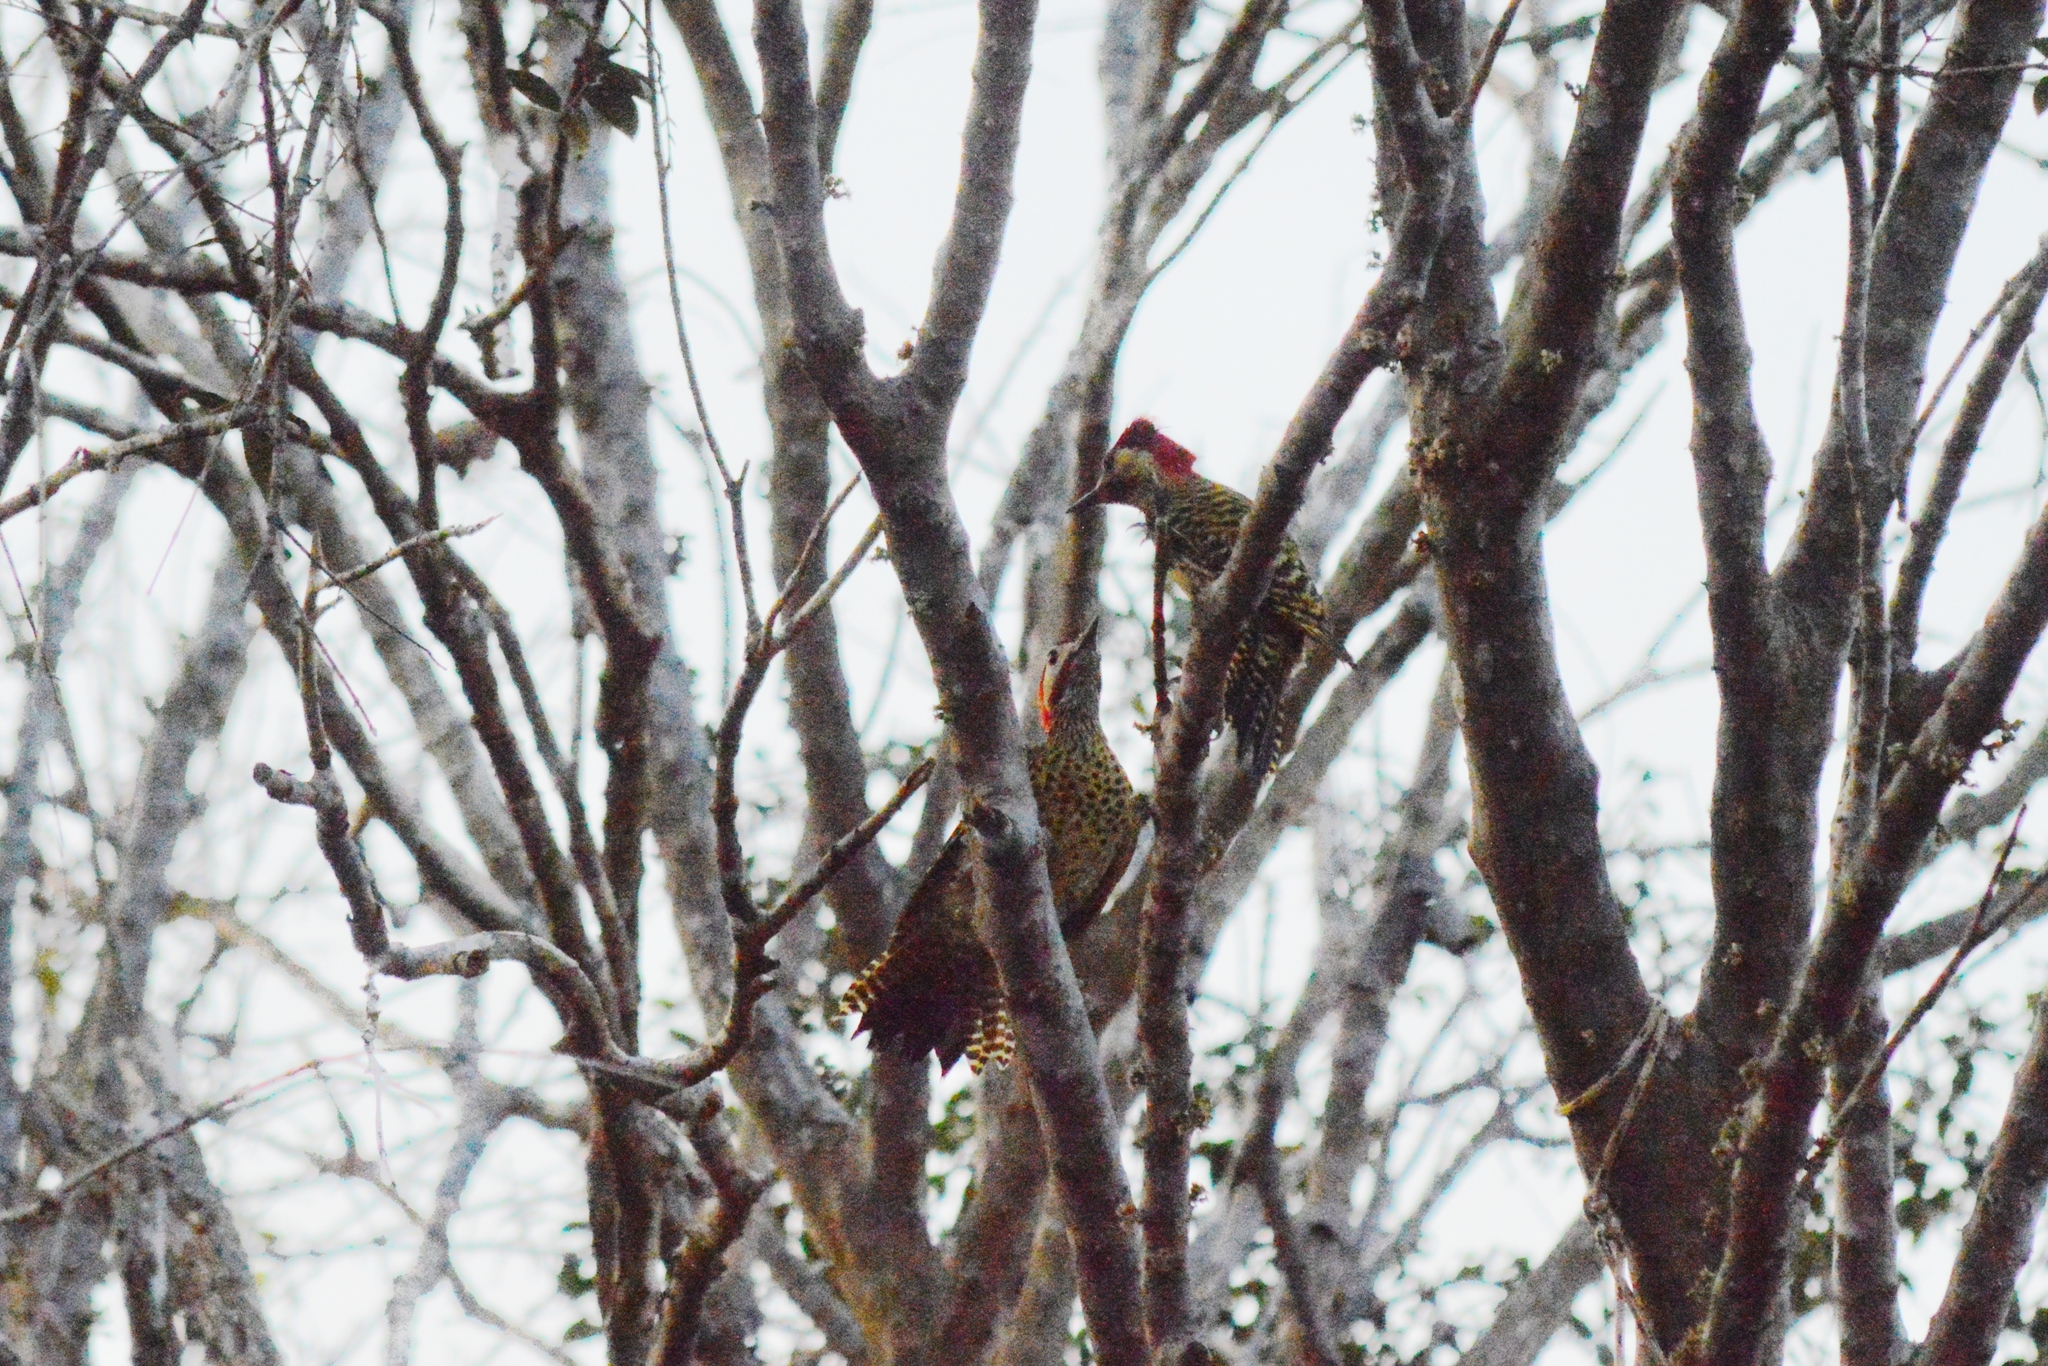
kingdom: Animalia
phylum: Chordata
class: Aves
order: Piciformes
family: Picidae
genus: Colaptes
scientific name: Colaptes melanochloros
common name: Green-barred woodpecker
